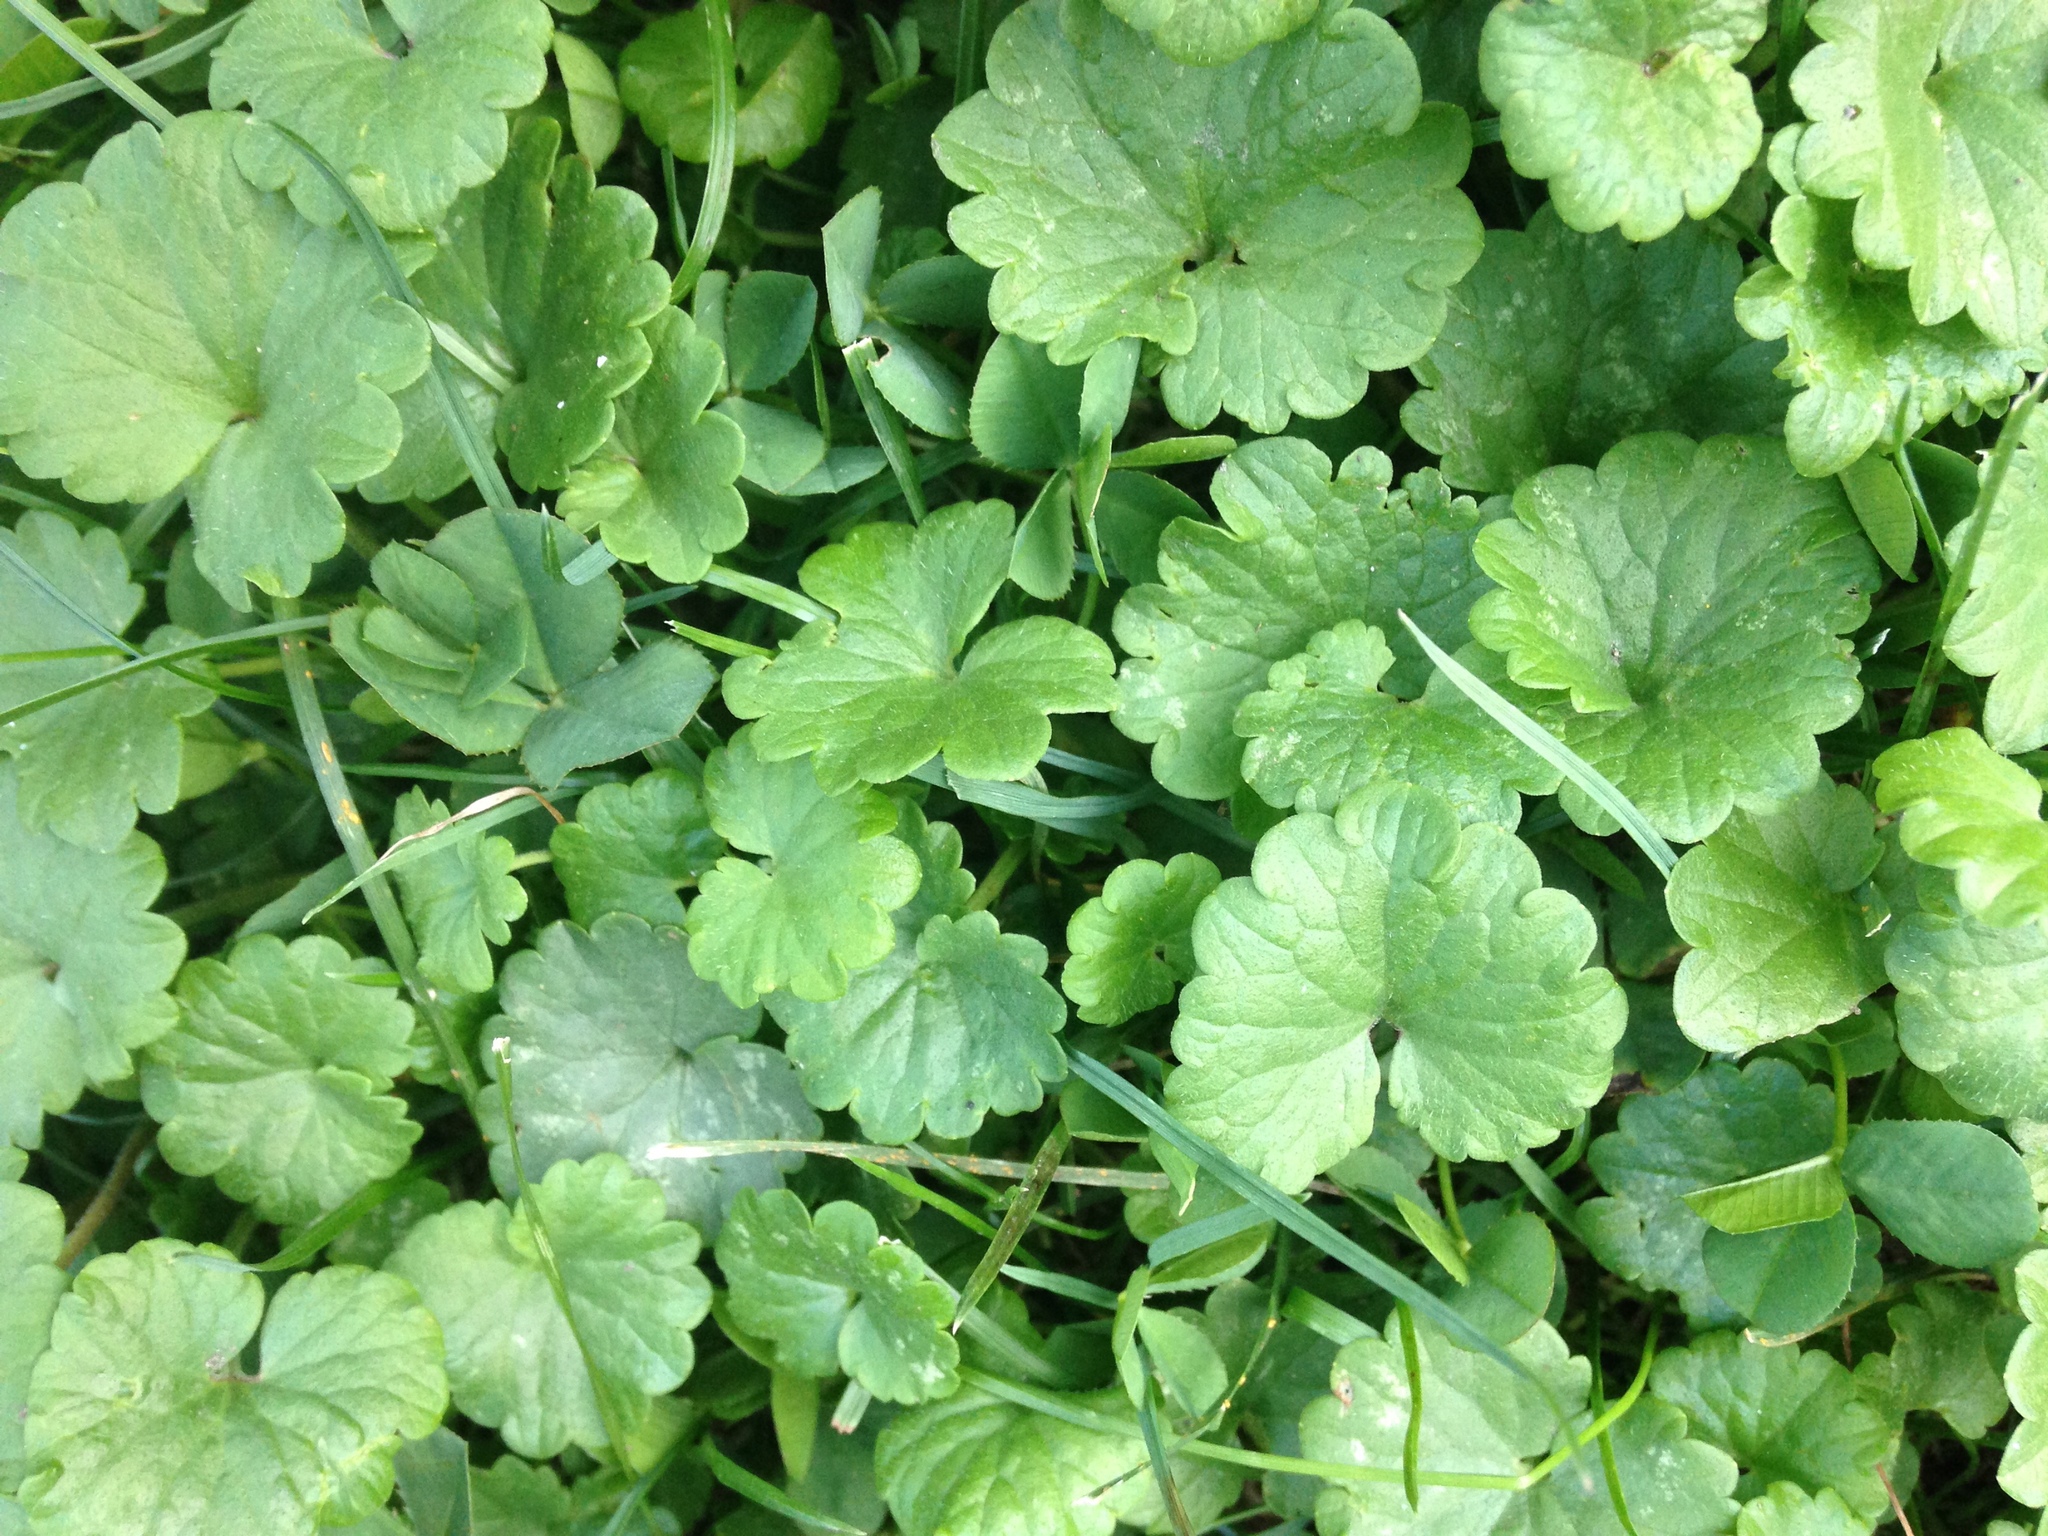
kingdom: Plantae
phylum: Tracheophyta
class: Magnoliopsida
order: Lamiales
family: Lamiaceae
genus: Glechoma
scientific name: Glechoma hederacea
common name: Ground ivy
